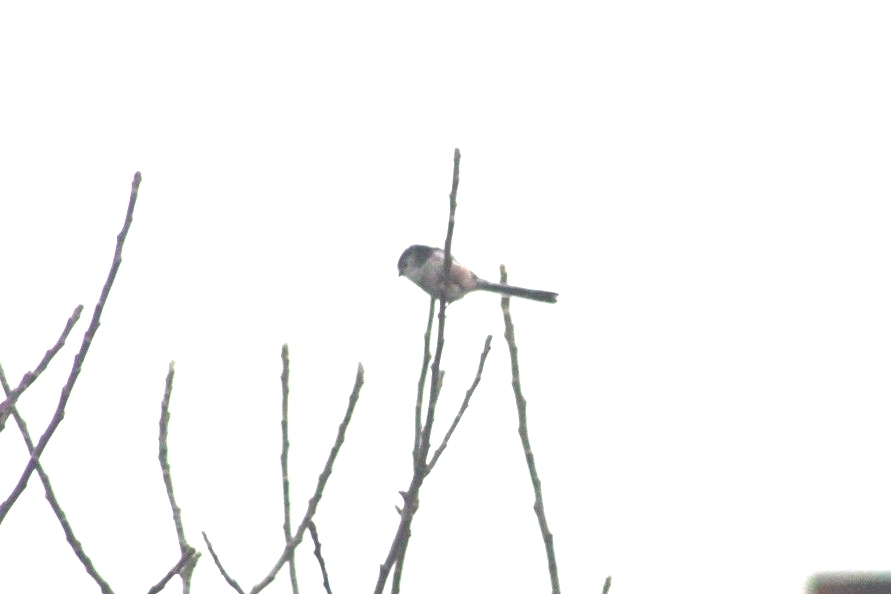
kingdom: Animalia
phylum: Chordata
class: Aves
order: Passeriformes
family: Aegithalidae
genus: Aegithalos
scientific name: Aegithalos caudatus
